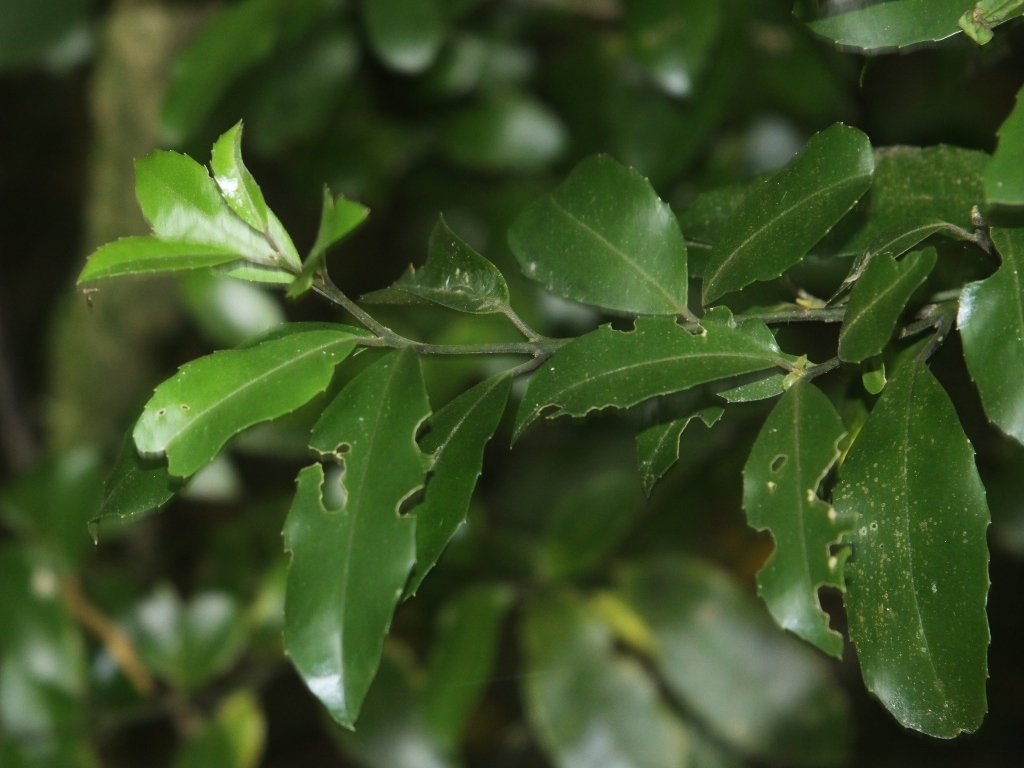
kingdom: Plantae
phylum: Tracheophyta
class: Magnoliopsida
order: Laurales
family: Monimiaceae
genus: Hedycarya
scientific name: Hedycarya arborea
